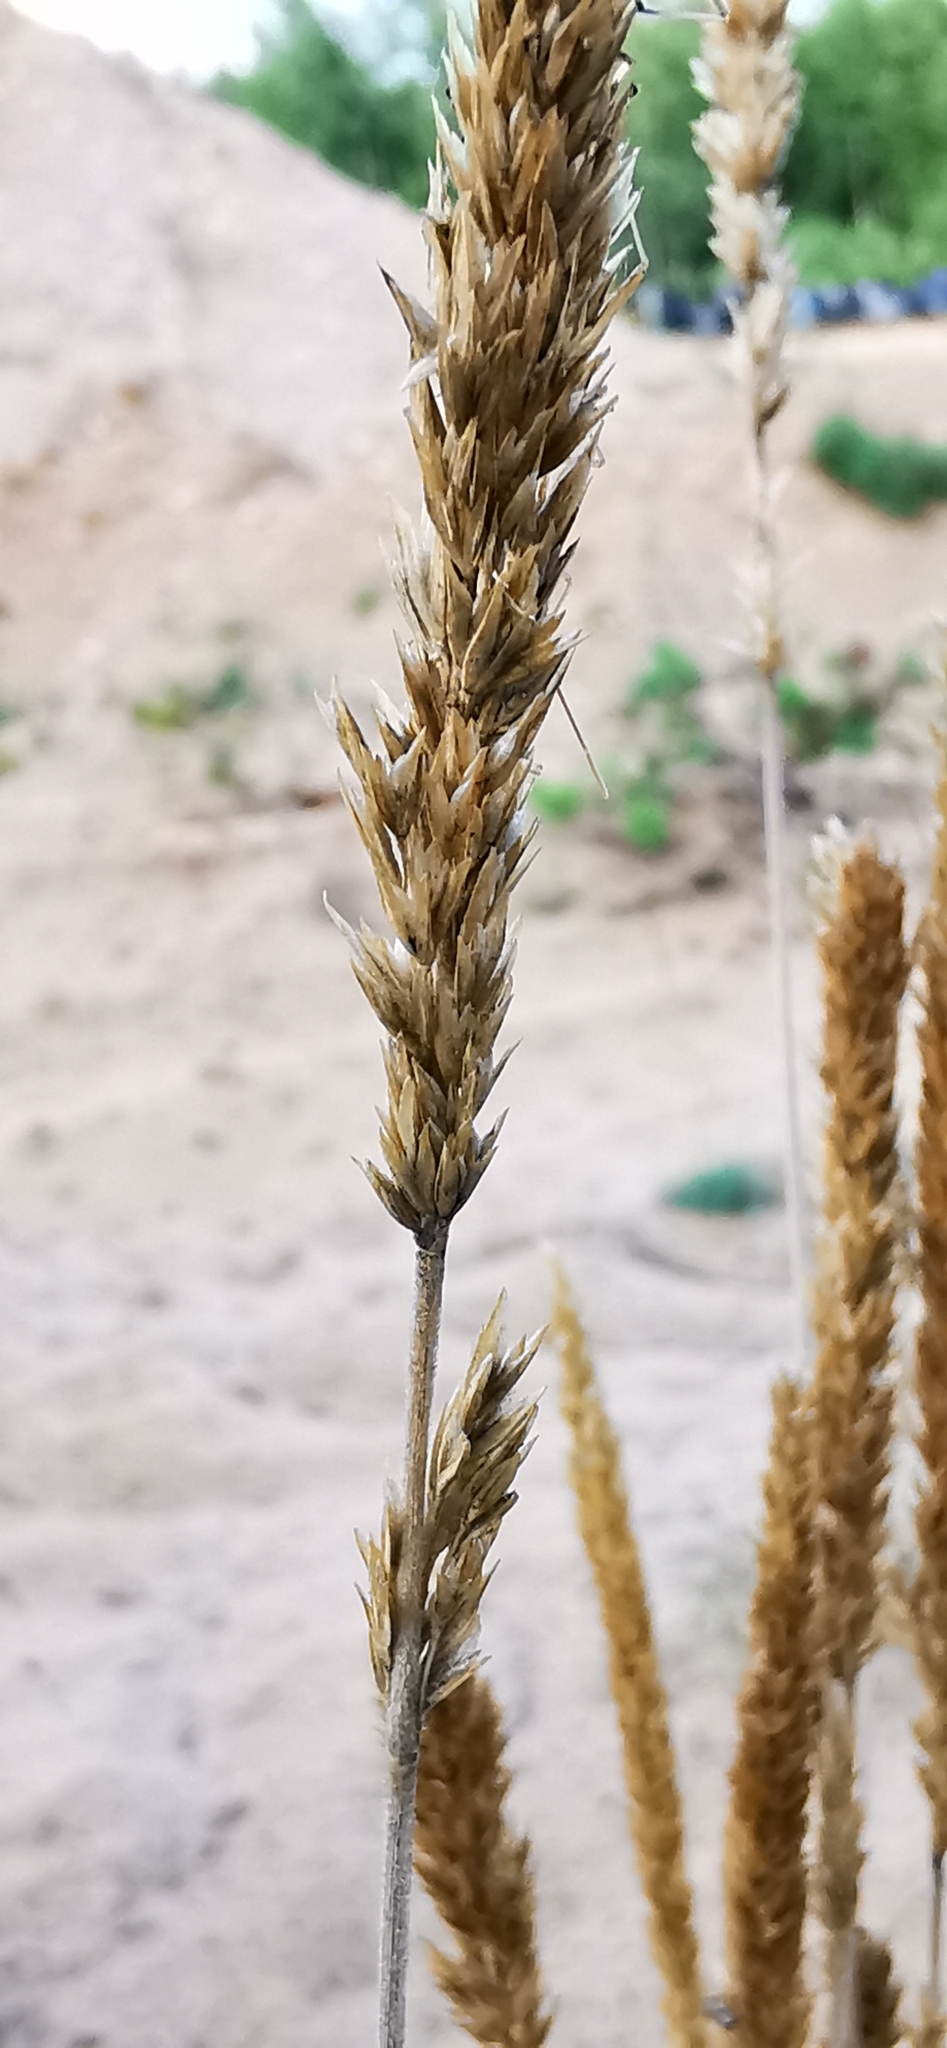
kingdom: Plantae
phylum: Tracheophyta
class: Liliopsida
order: Poales
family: Poaceae
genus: Koeleria
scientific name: Koeleria glauca
